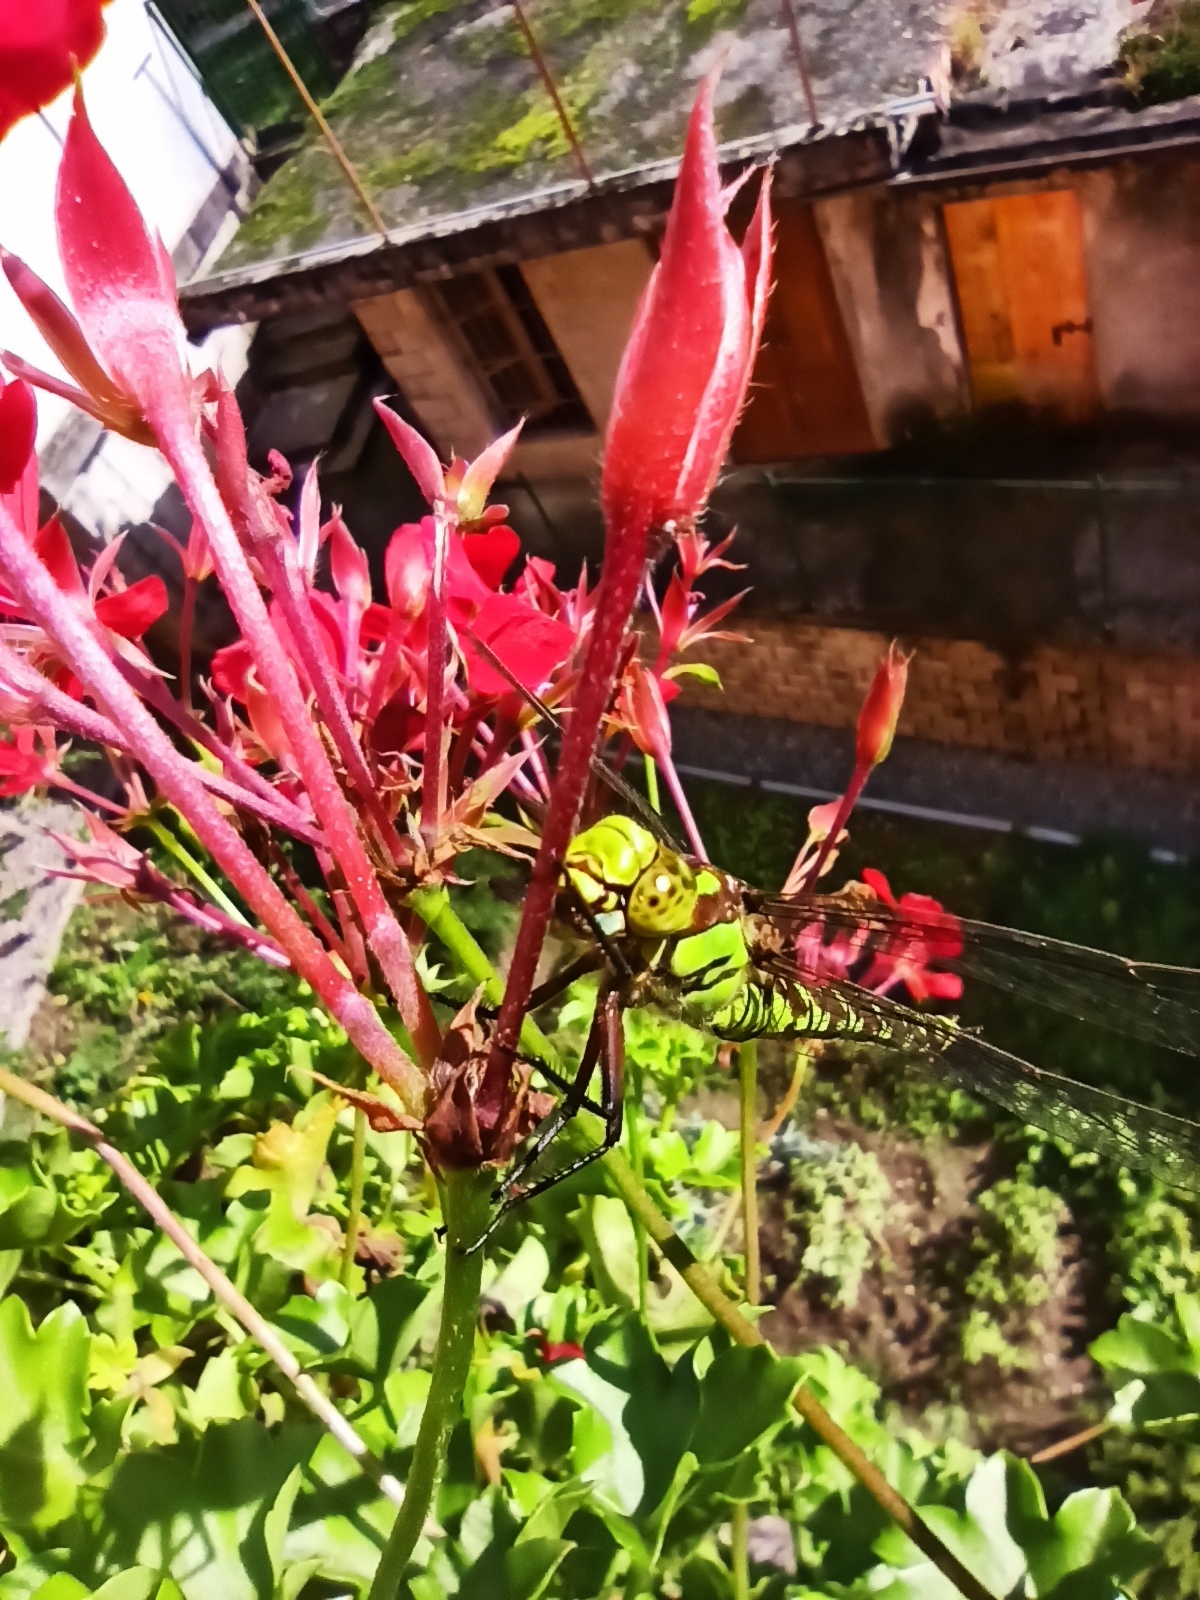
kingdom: Animalia
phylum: Arthropoda
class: Insecta
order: Odonata
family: Aeshnidae
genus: Aeshna
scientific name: Aeshna cyanea
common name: Southern hawker
